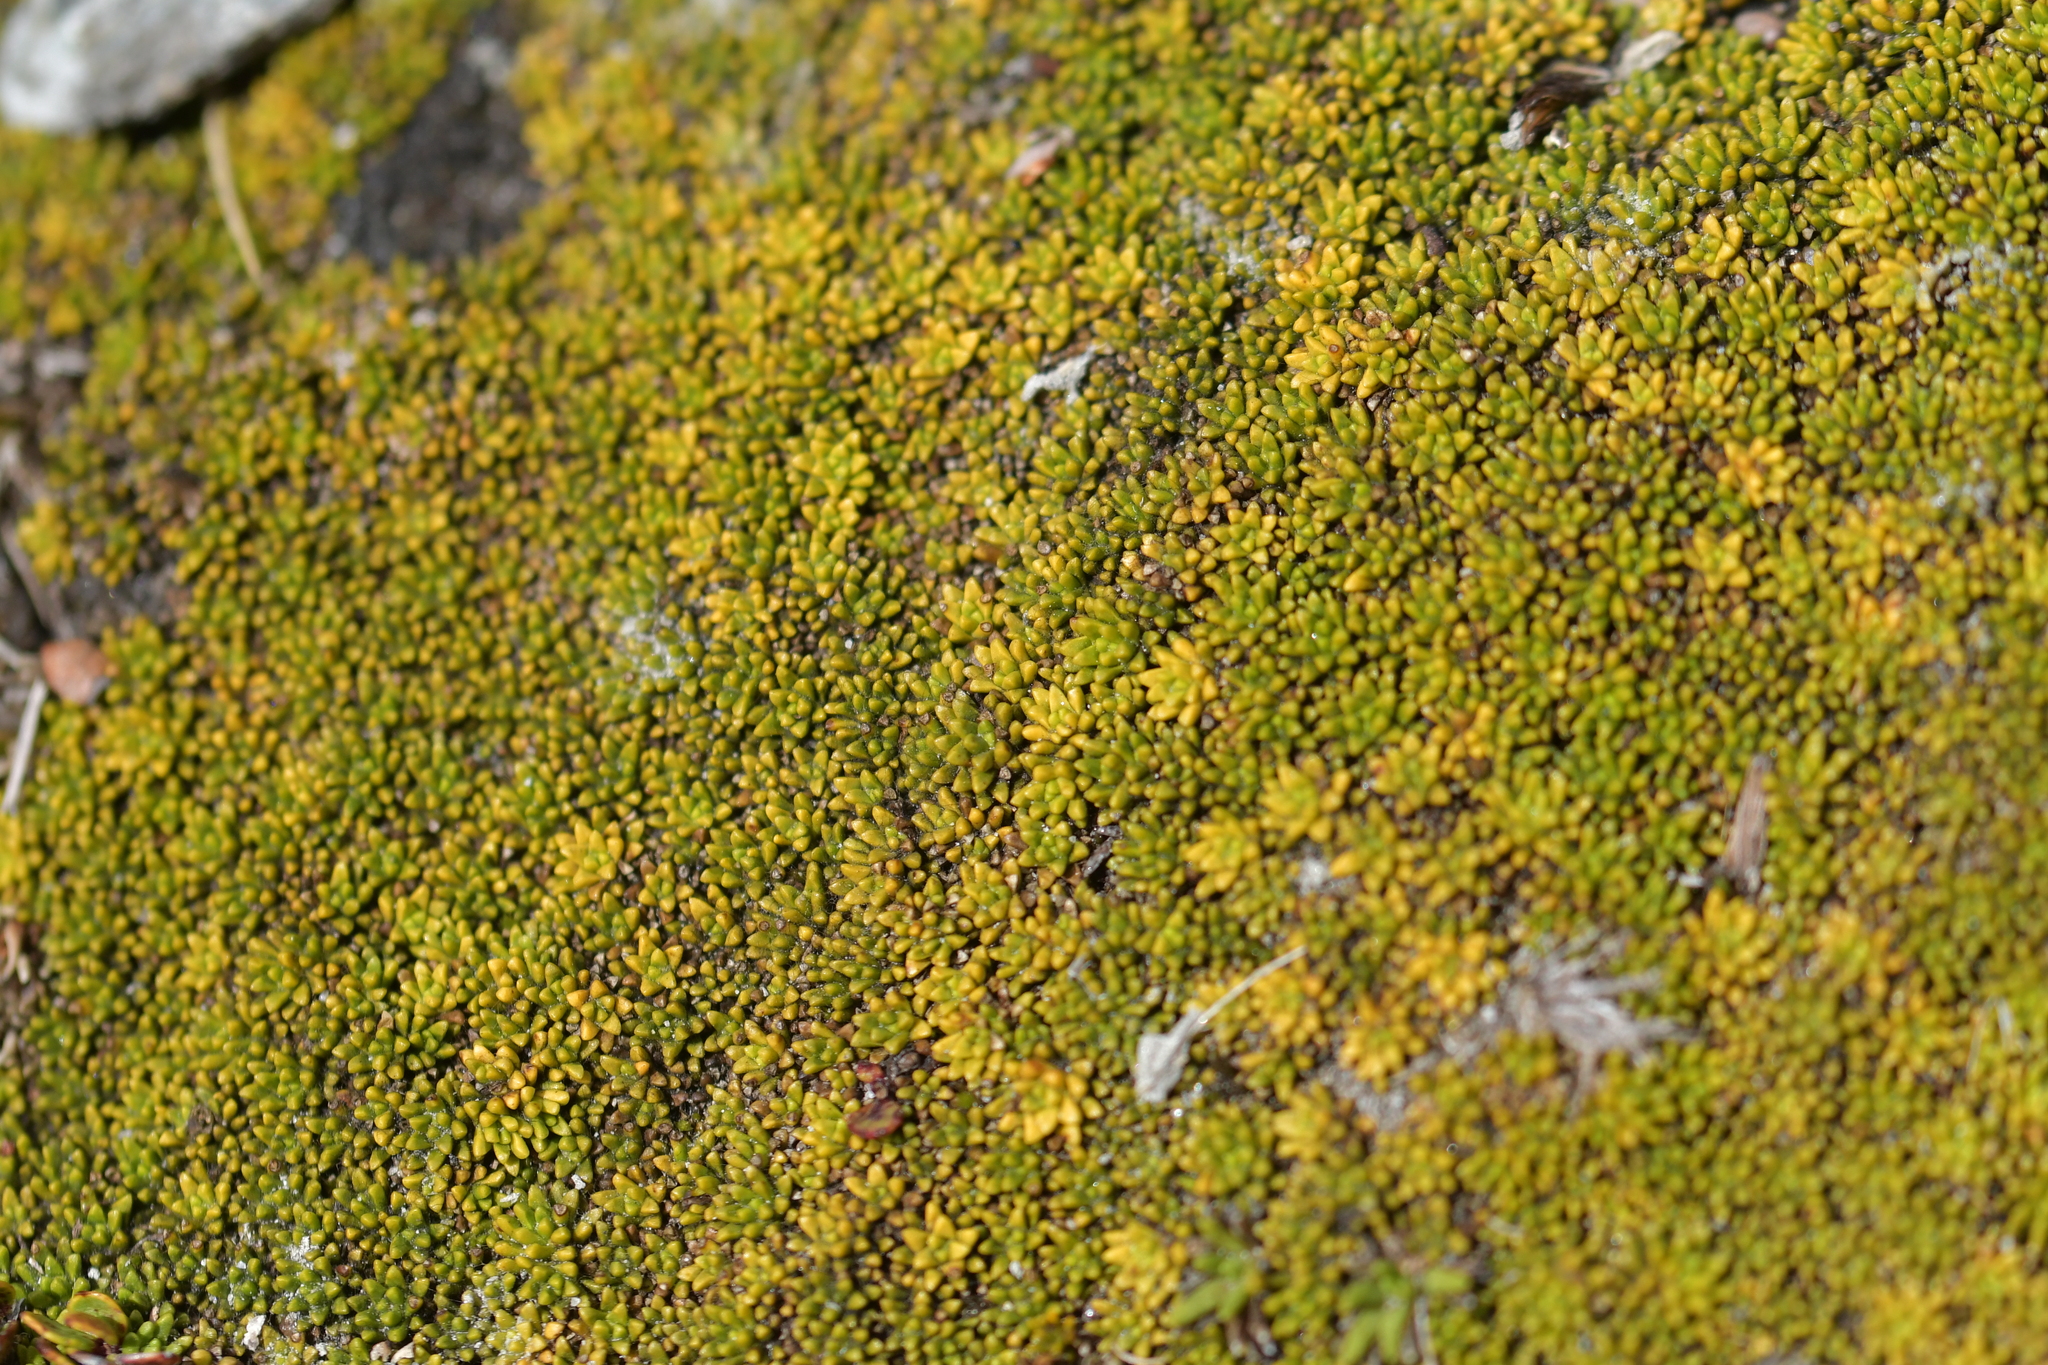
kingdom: Plantae
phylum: Tracheophyta
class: Magnoliopsida
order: Asterales
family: Stylidiaceae
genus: Phyllachne
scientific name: Phyllachne colensoi
